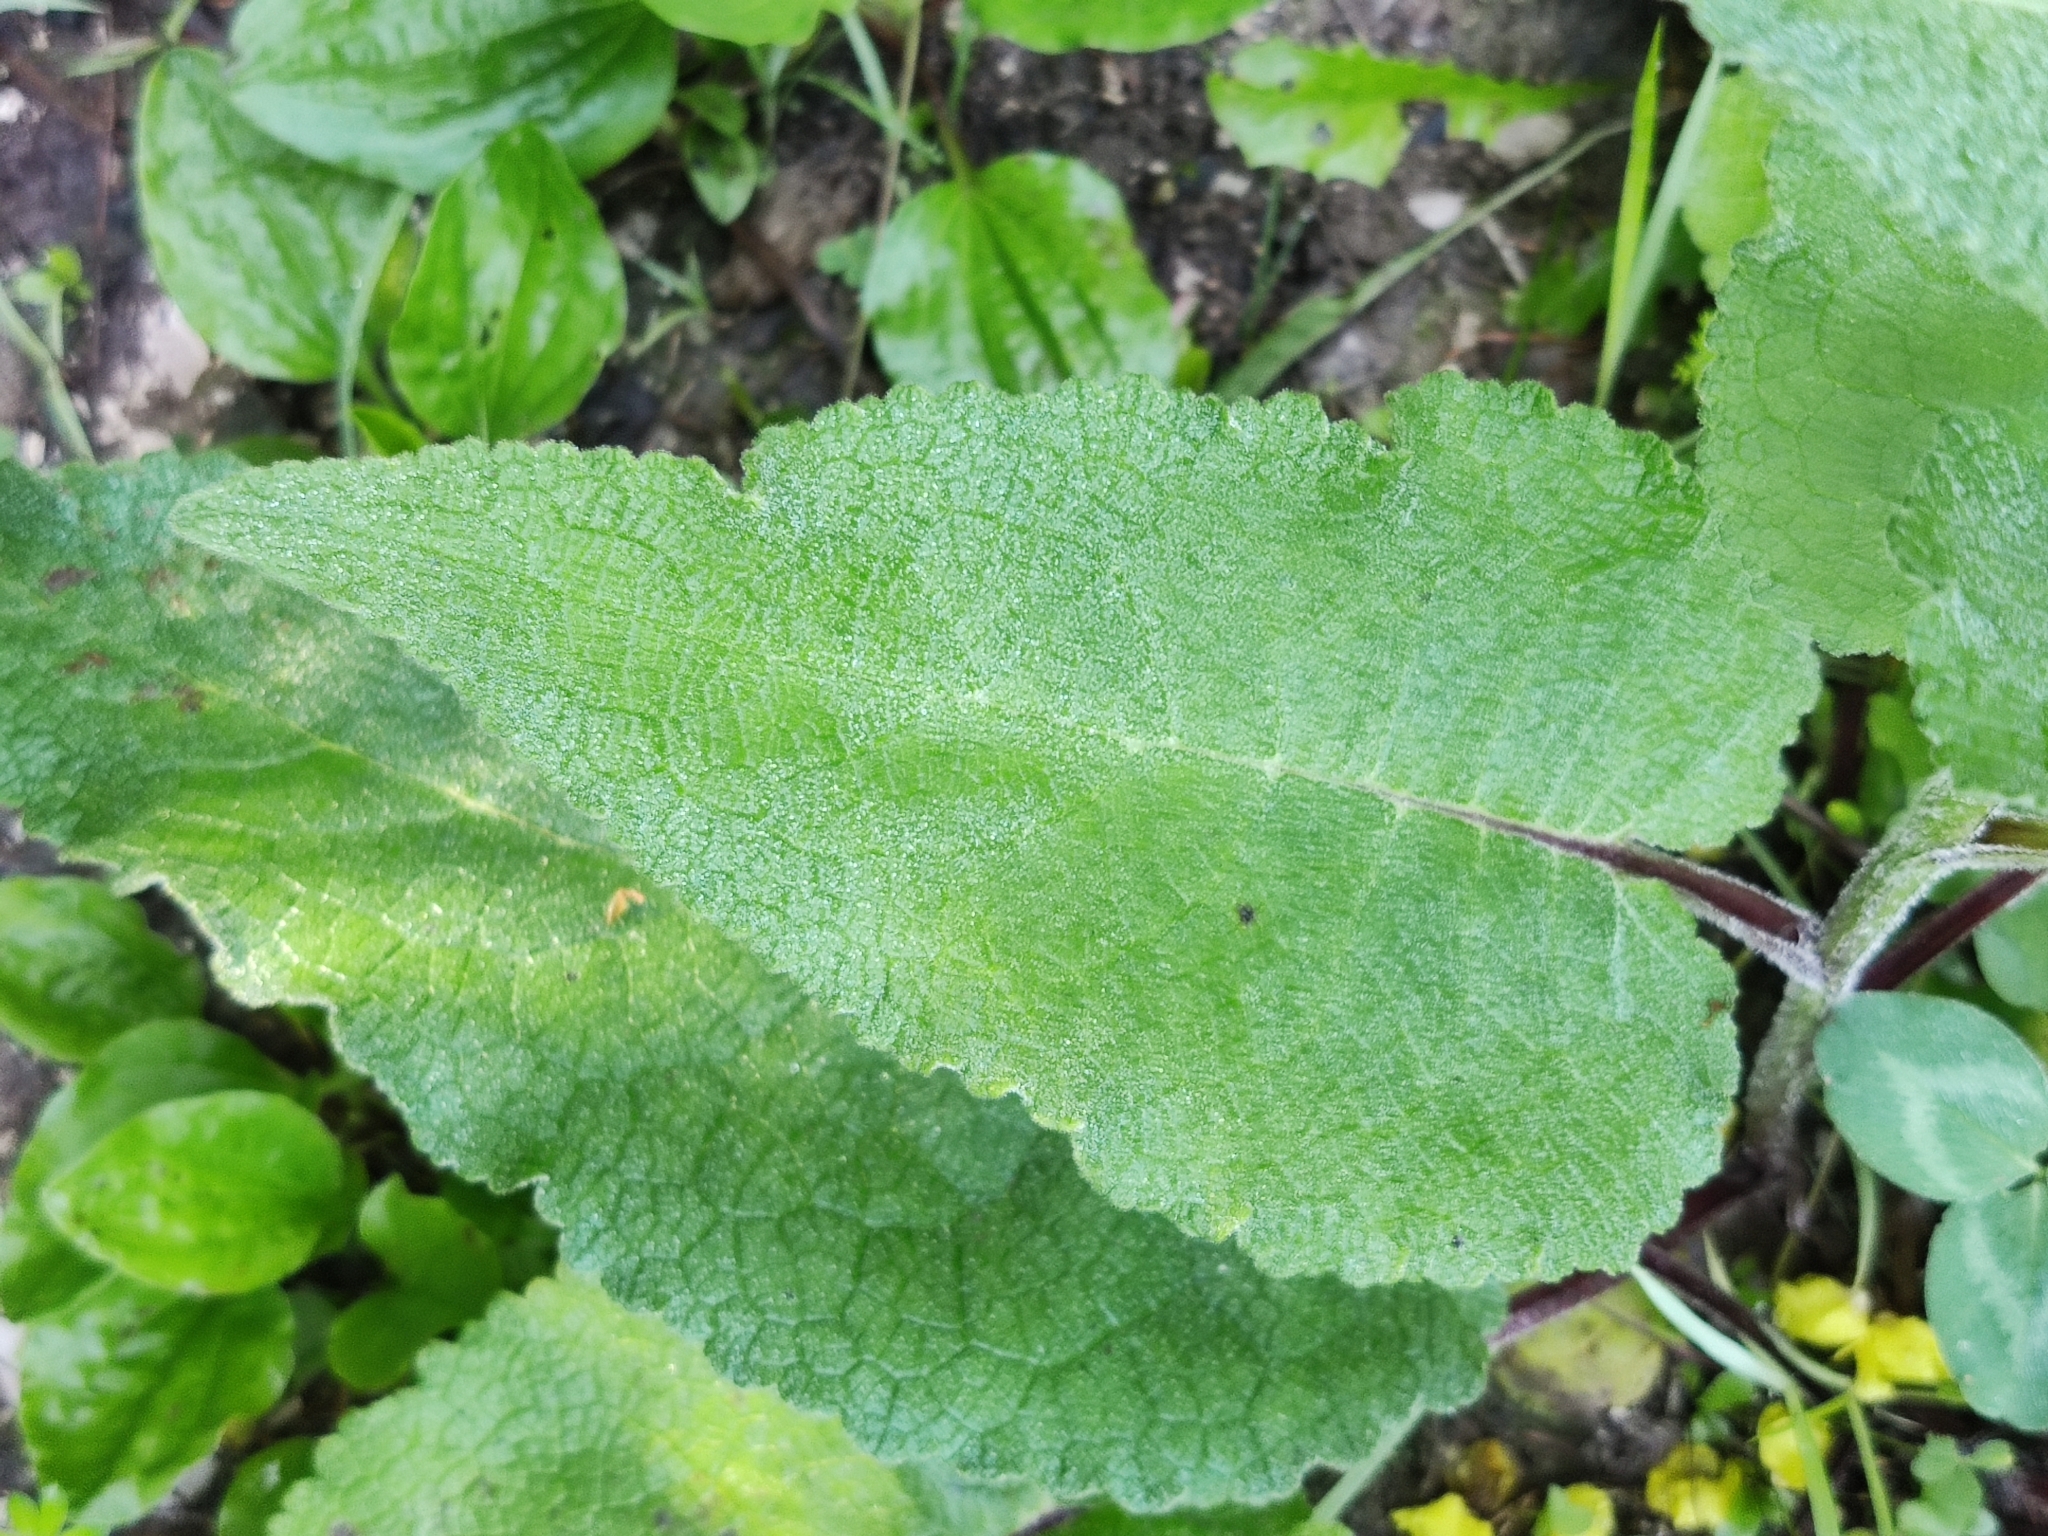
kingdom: Plantae
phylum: Tracheophyta
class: Magnoliopsida
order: Lamiales
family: Scrophulariaceae
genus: Verbascum
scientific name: Verbascum nigrum
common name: Dark mullein
